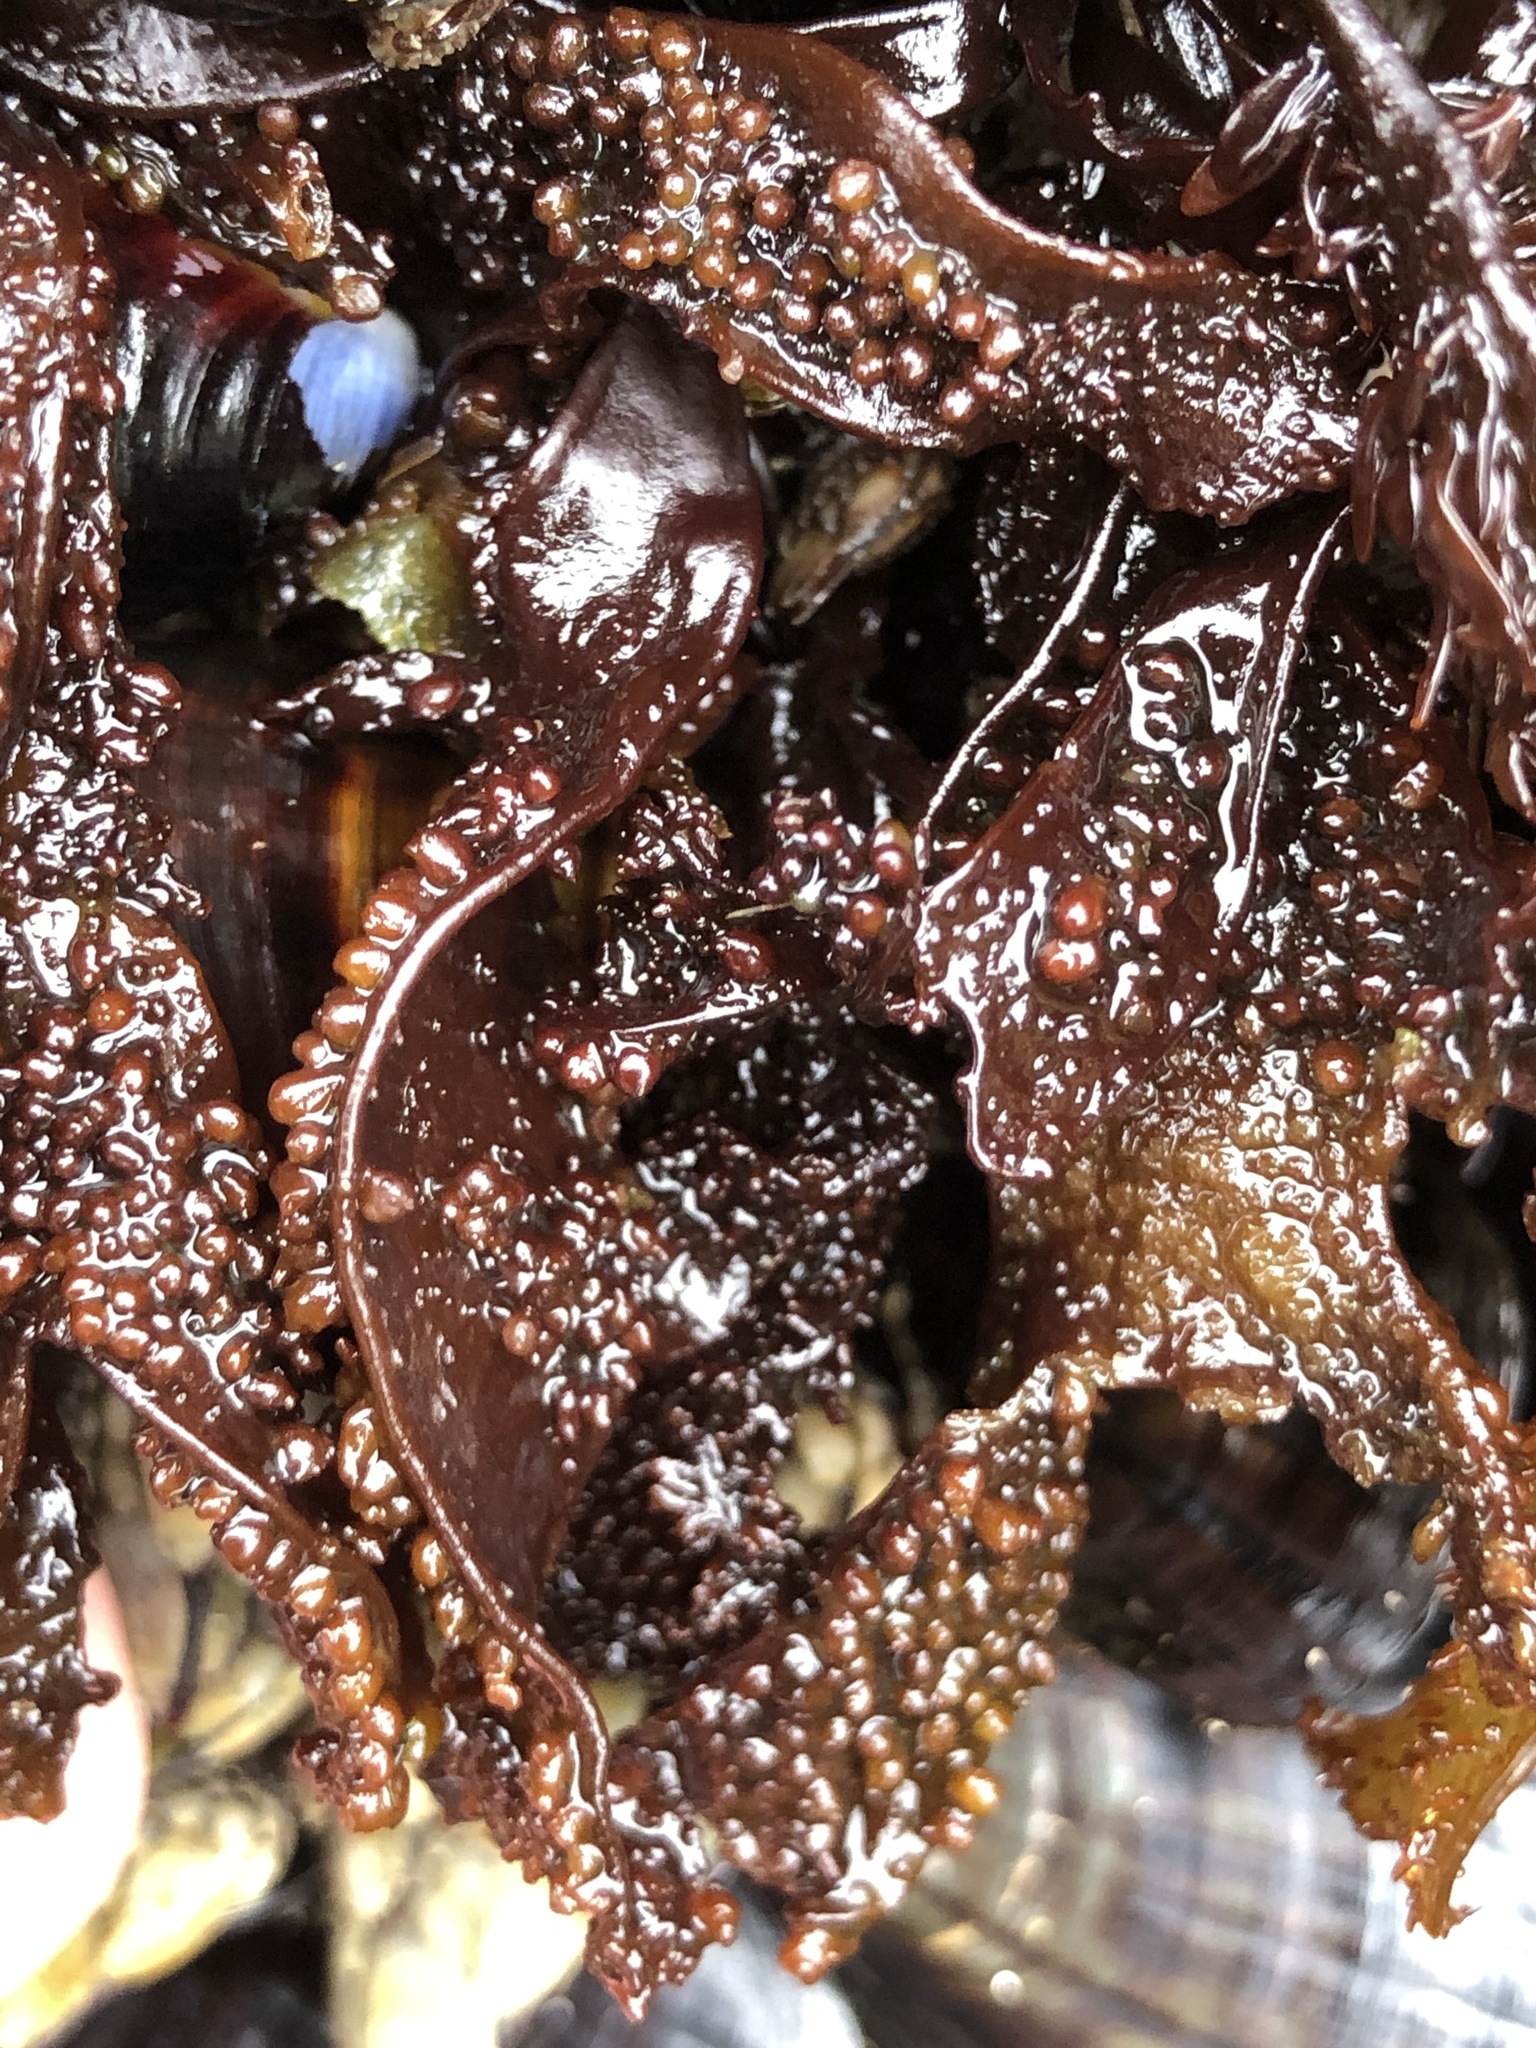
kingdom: Plantae
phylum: Rhodophyta
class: Florideophyceae
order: Gigartinales
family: Phyllophoraceae
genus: Mastocarpus
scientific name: Mastocarpus papillatus
